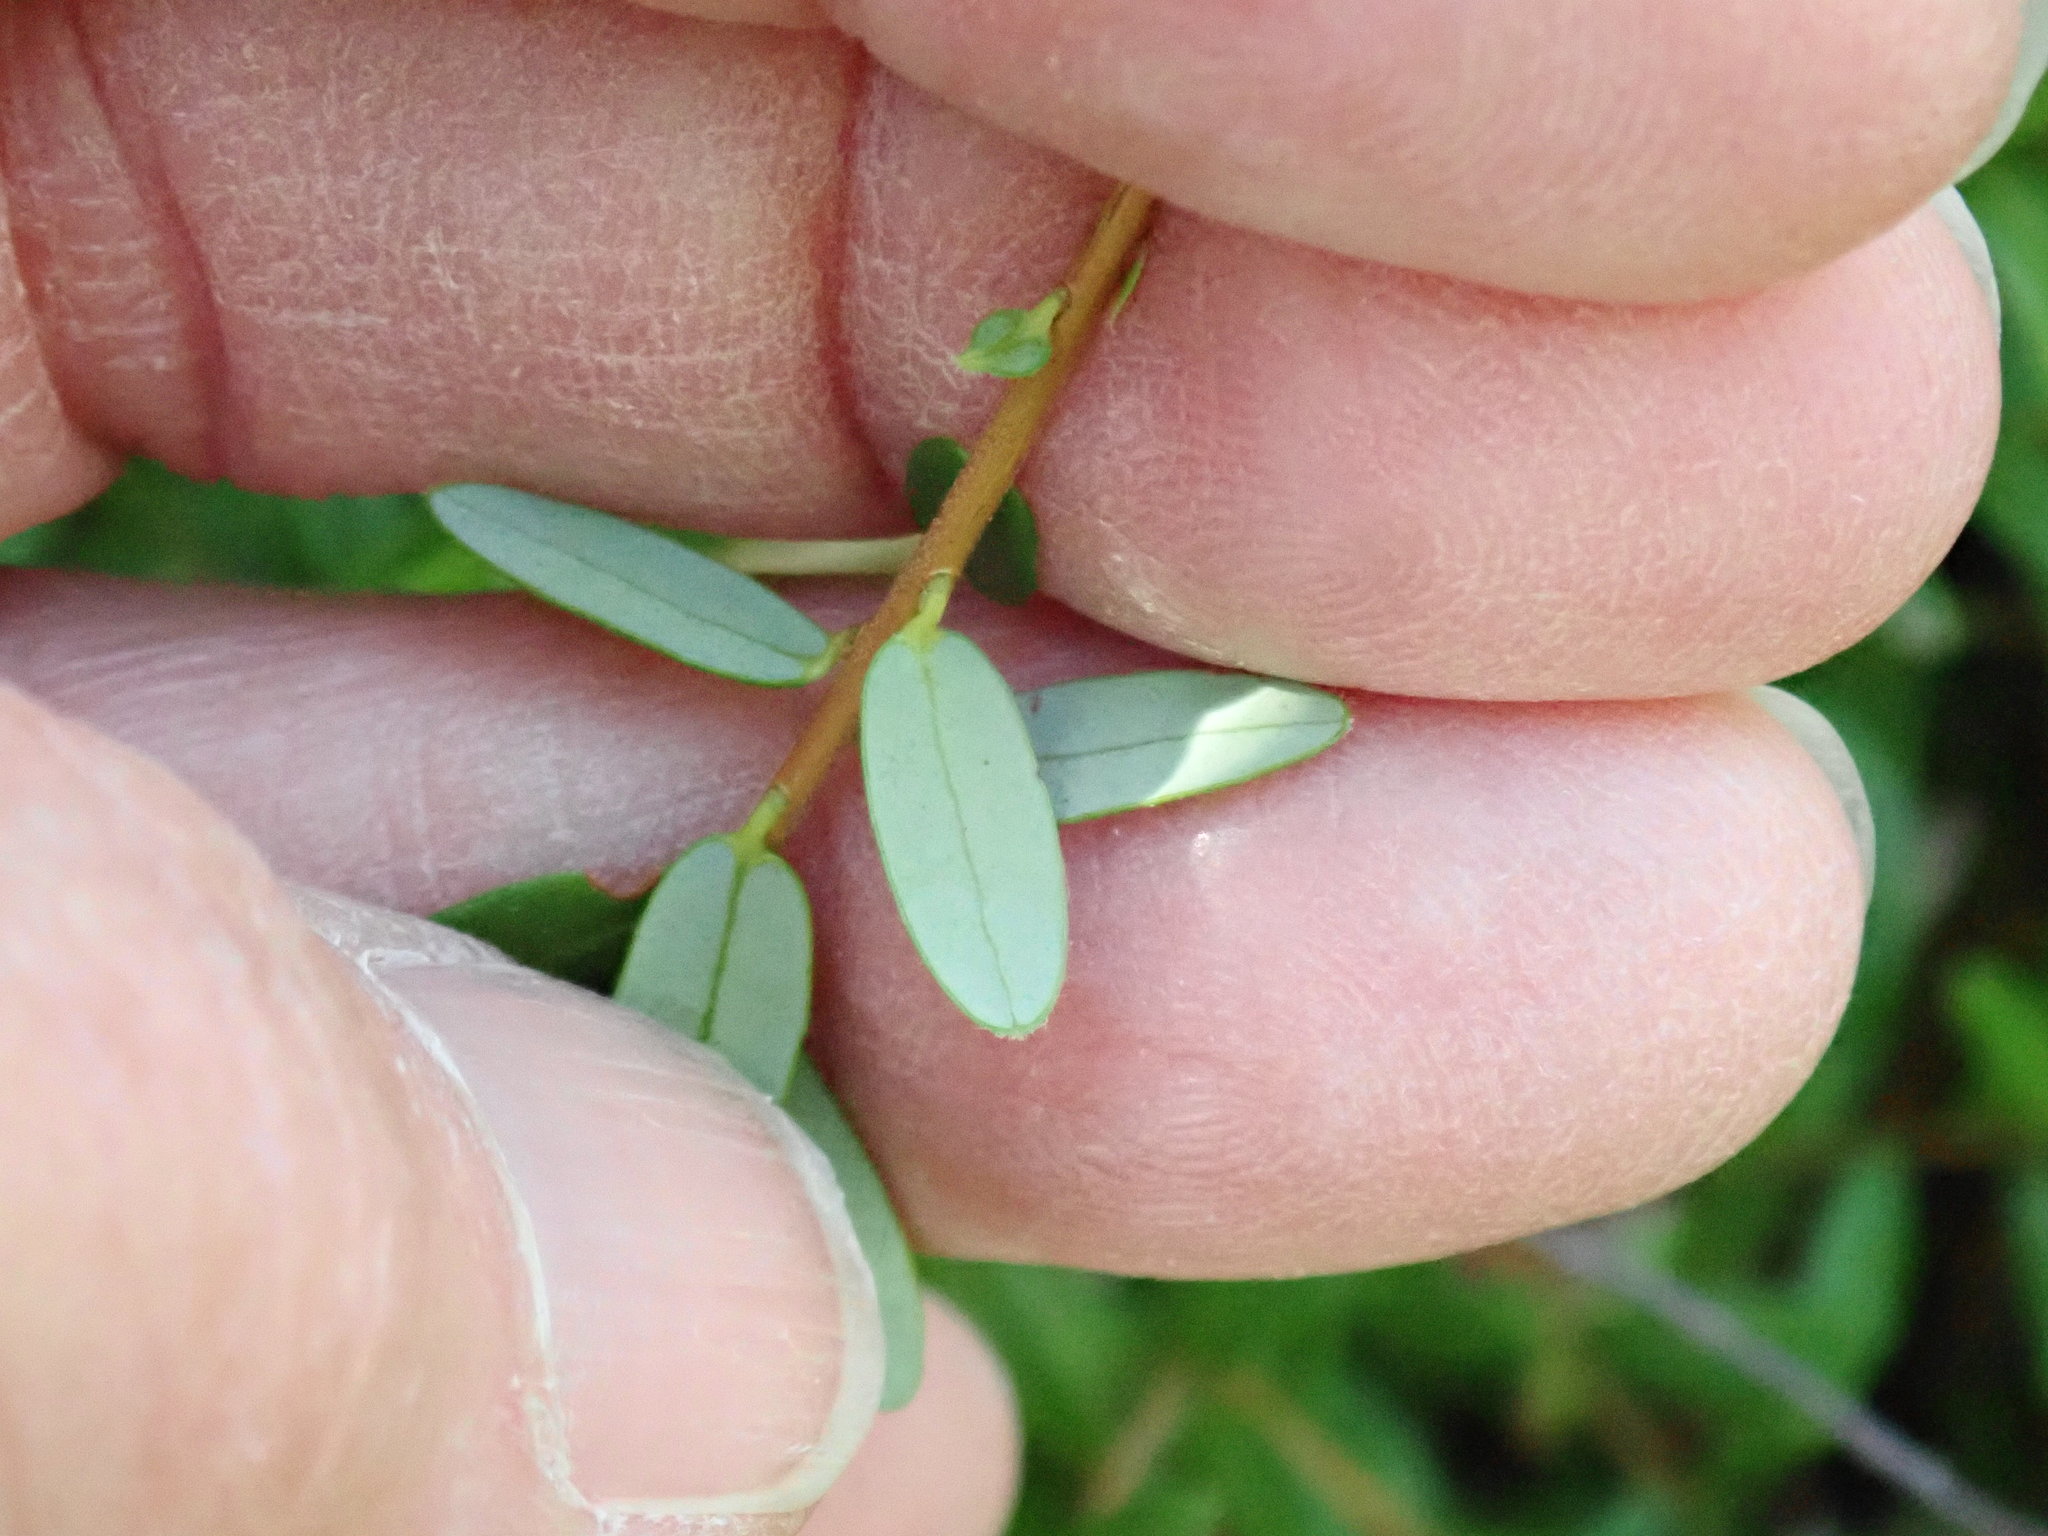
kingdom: Plantae
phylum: Tracheophyta
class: Magnoliopsida
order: Ericales
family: Ericaceae
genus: Vaccinium
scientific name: Vaccinium macrocarpon
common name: American cranberry
